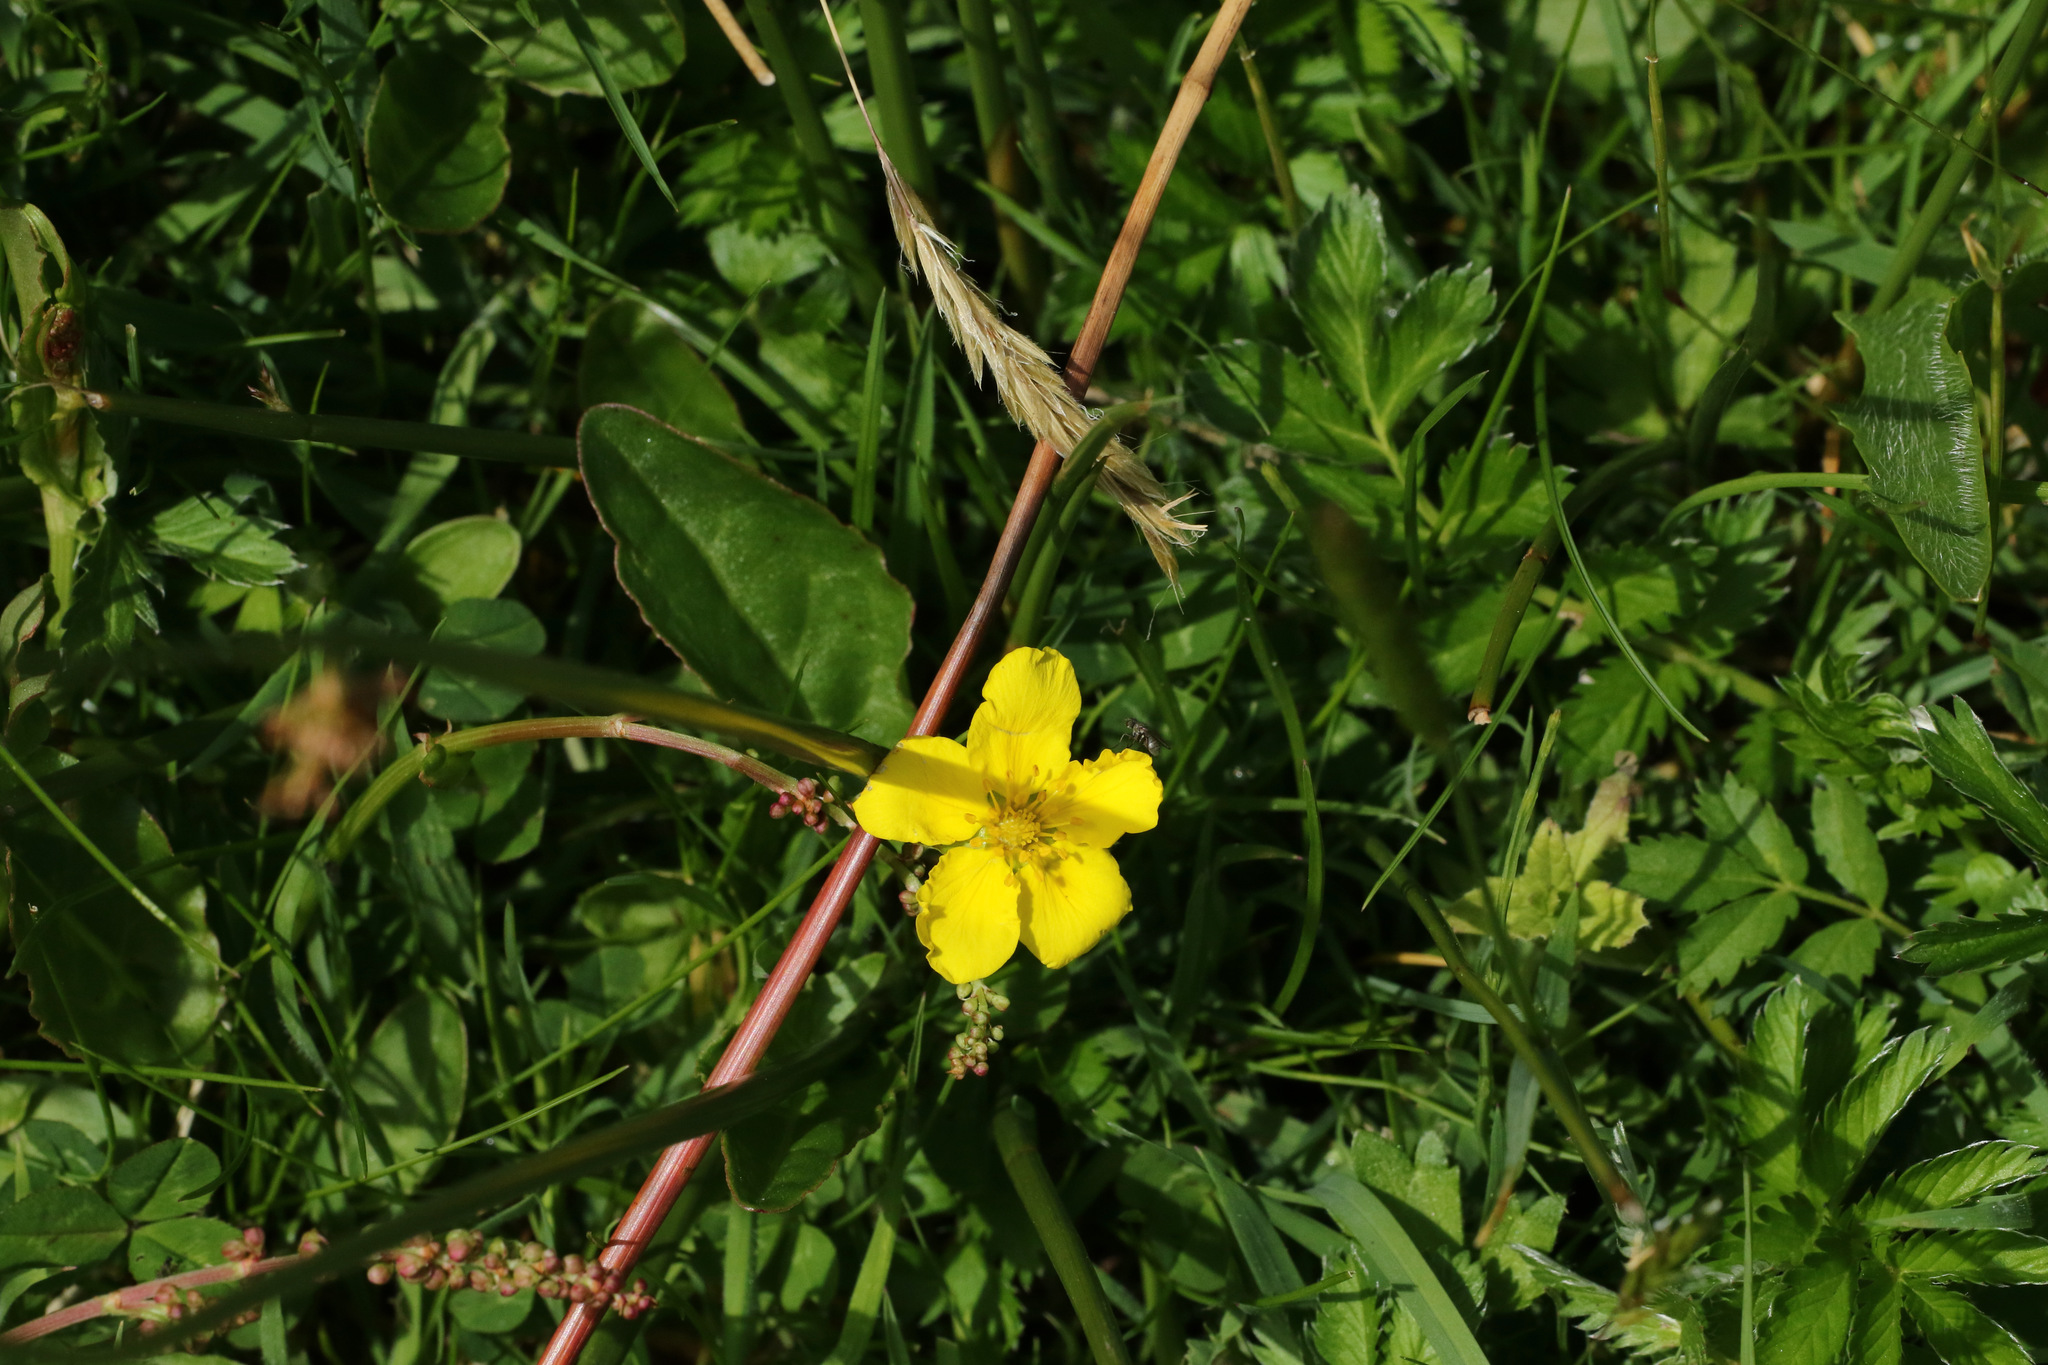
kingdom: Plantae
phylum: Tracheophyta
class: Magnoliopsida
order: Rosales
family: Rosaceae
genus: Argentina
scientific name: Argentina anserina
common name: Common silverweed
